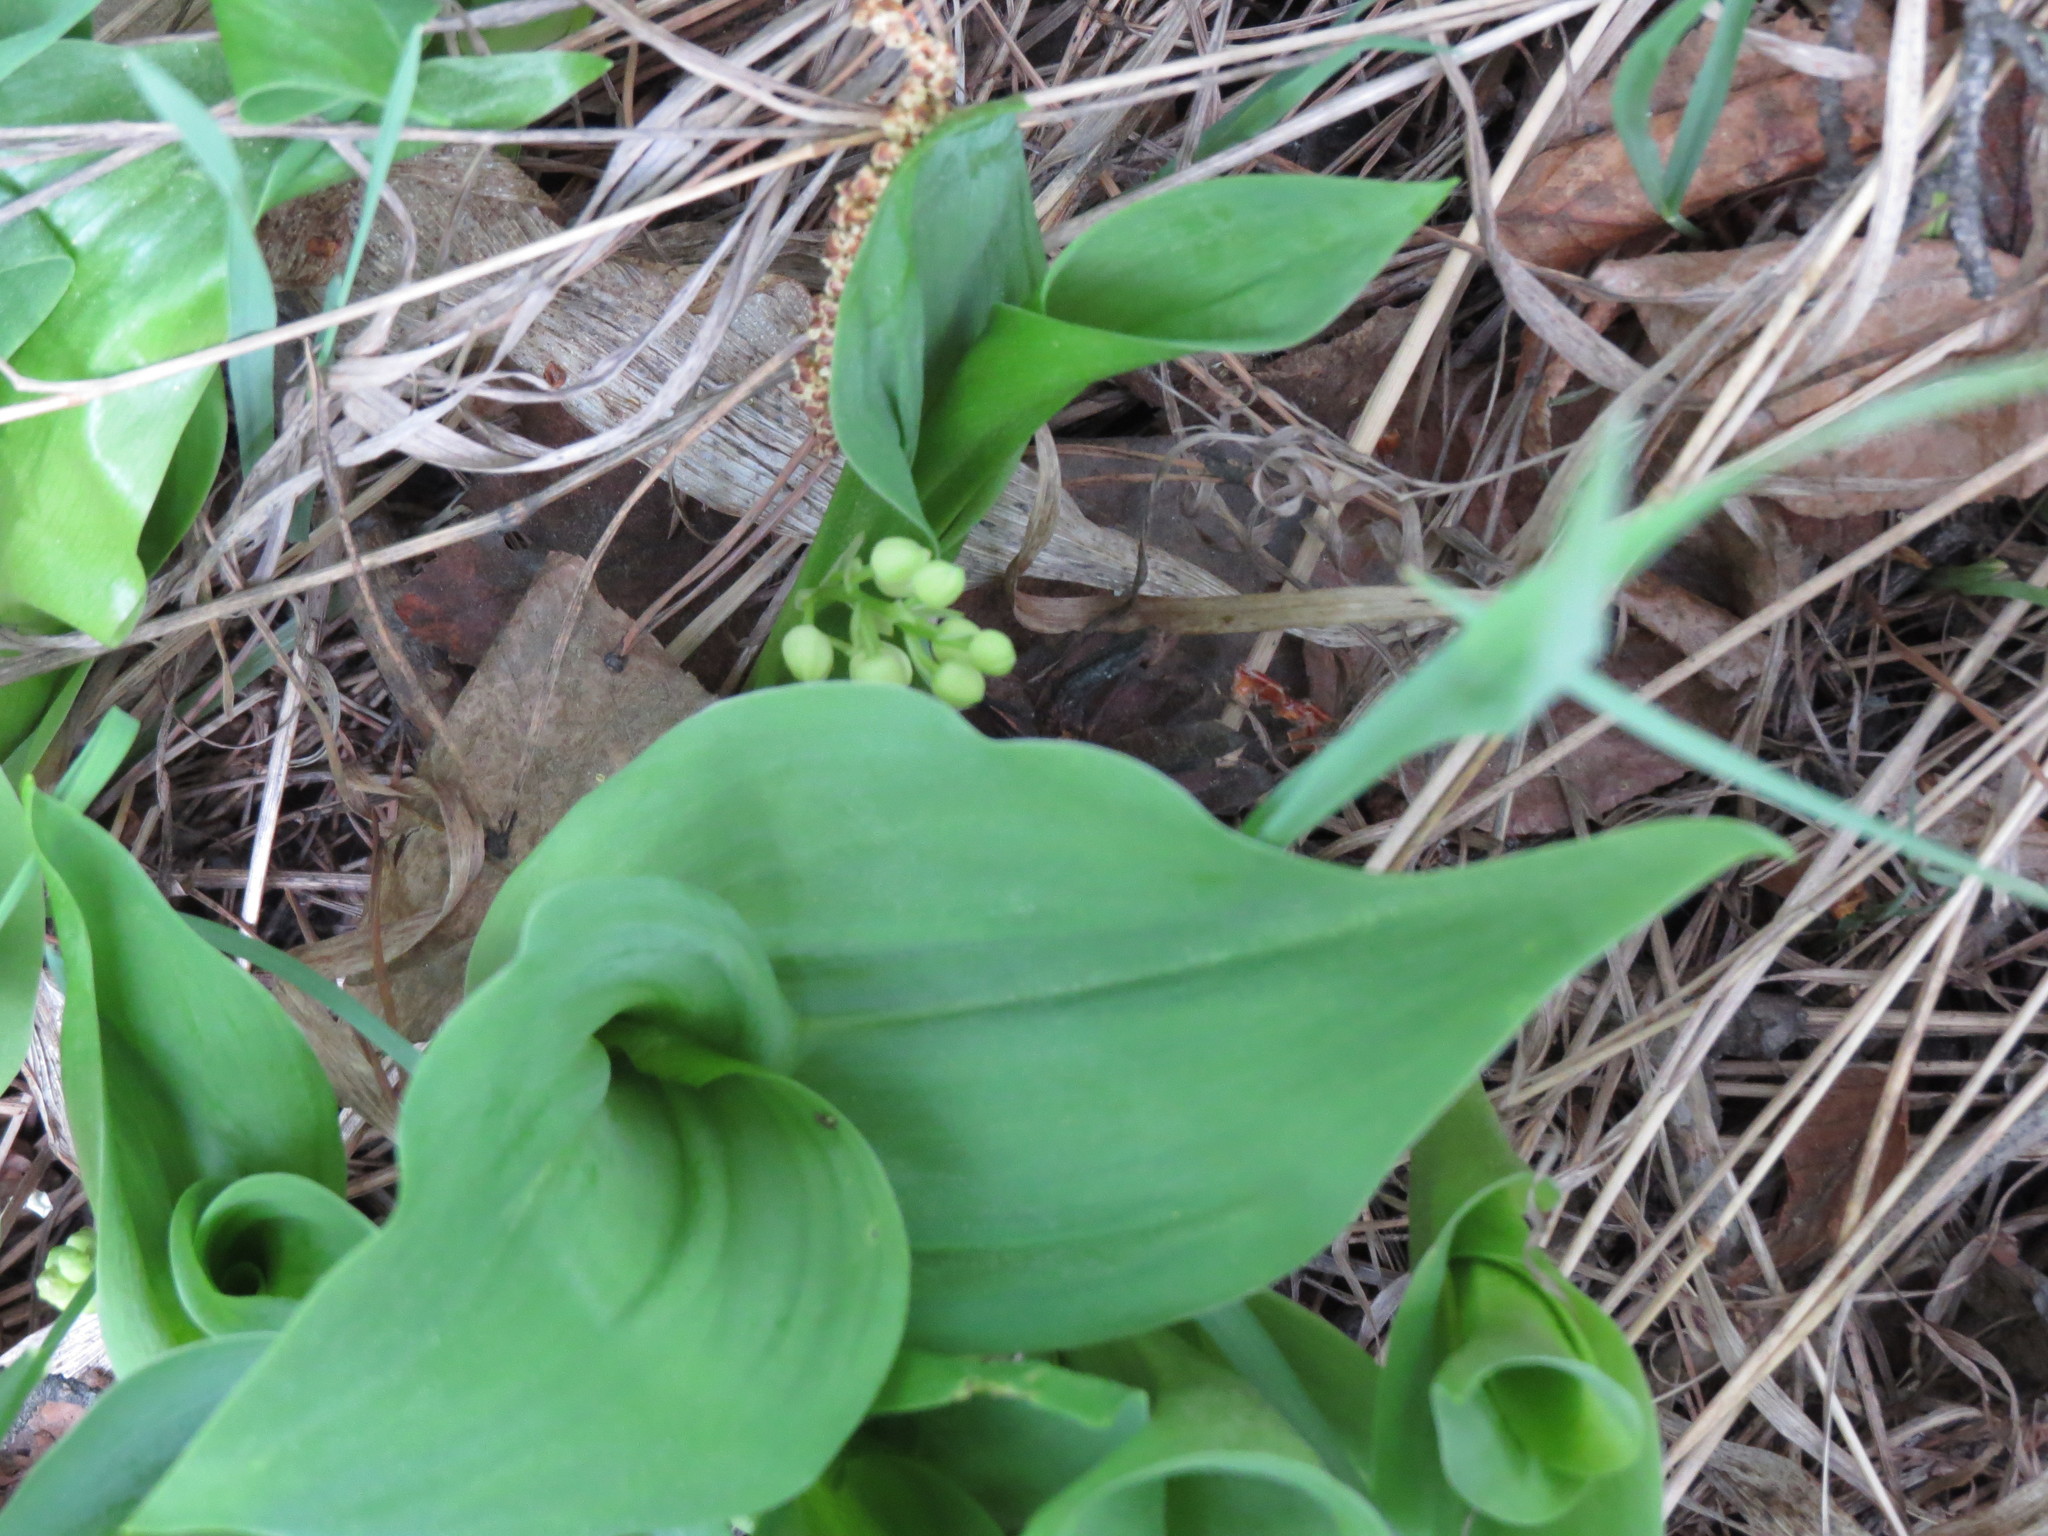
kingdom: Plantae
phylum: Tracheophyta
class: Liliopsida
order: Asparagales
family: Asparagaceae
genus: Convallaria
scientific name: Convallaria majalis
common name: Lily-of-the-valley
